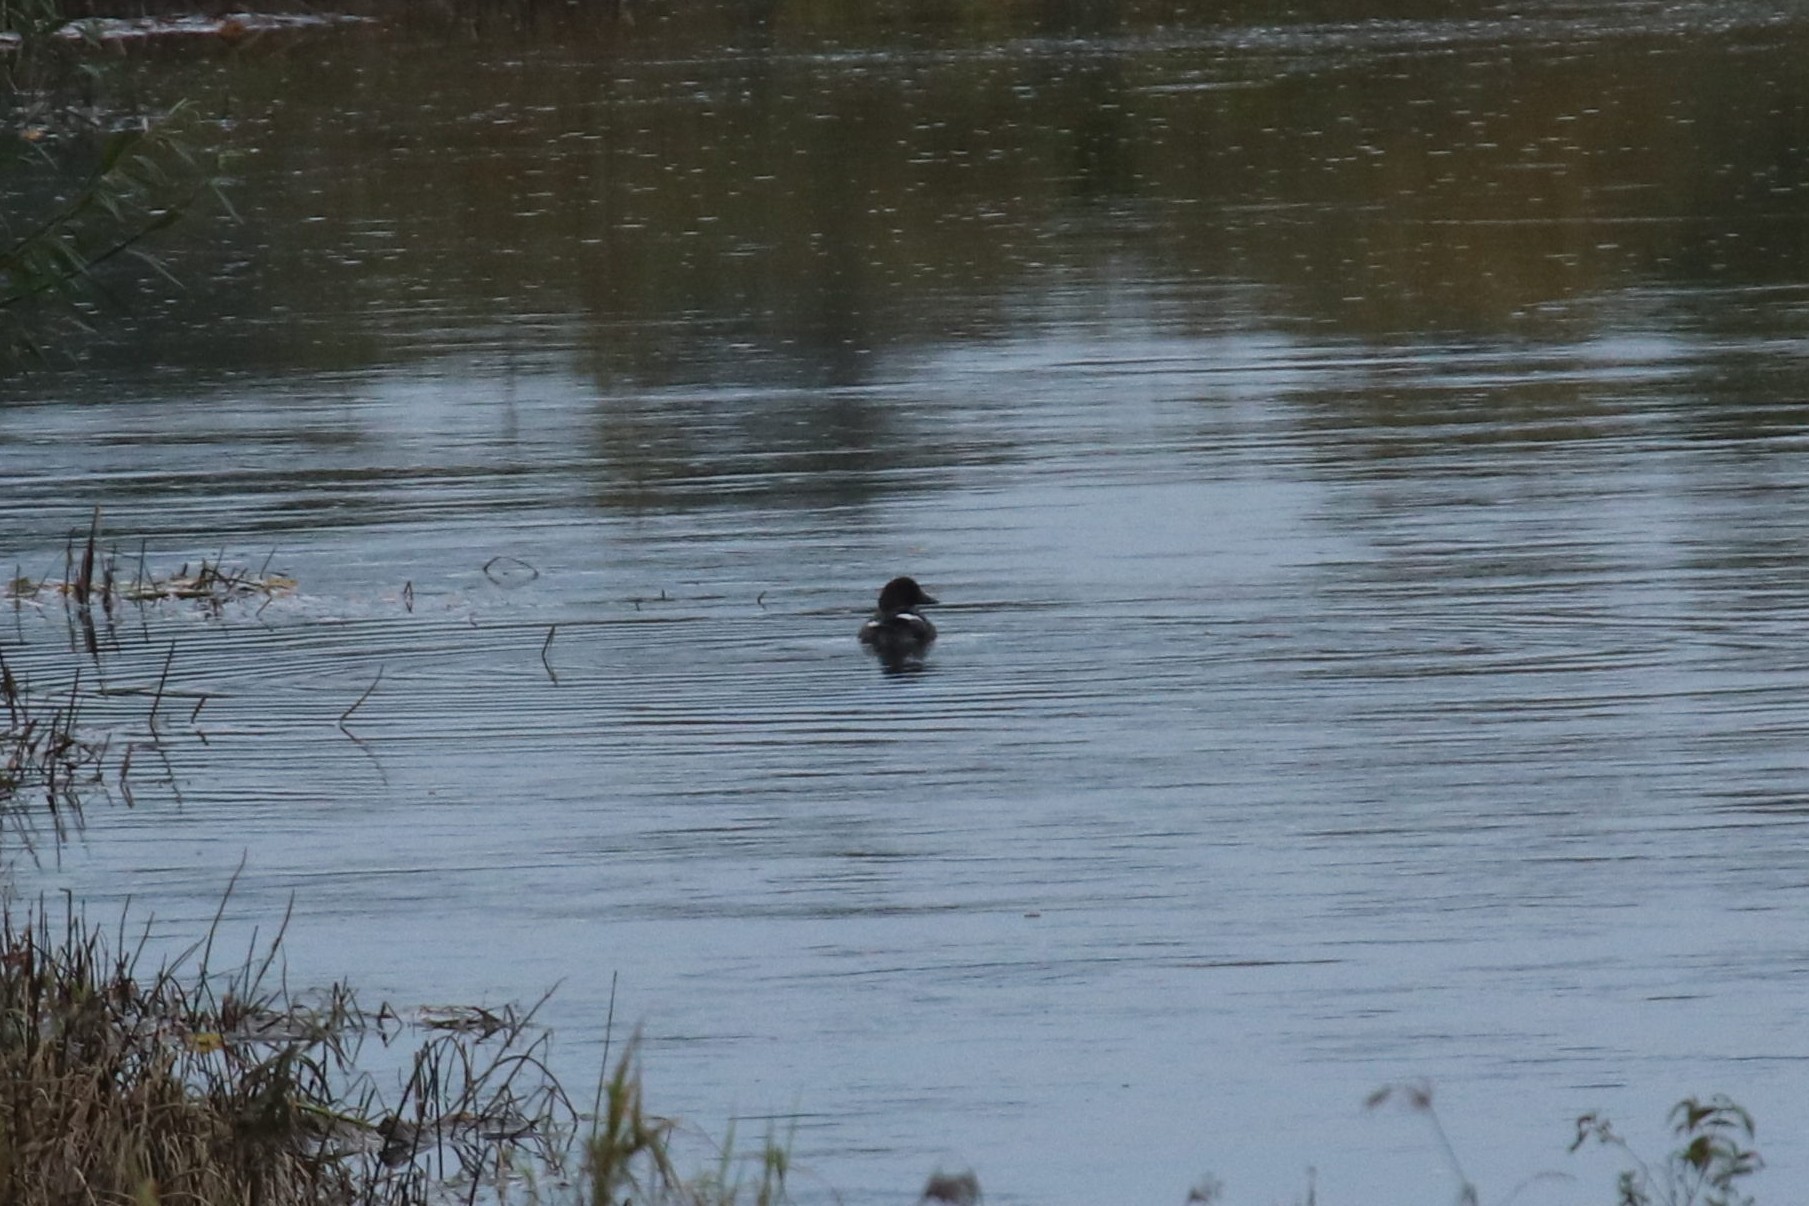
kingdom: Animalia
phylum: Chordata
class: Aves
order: Anseriformes
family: Anatidae
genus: Bucephala
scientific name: Bucephala clangula
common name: Common goldeneye
